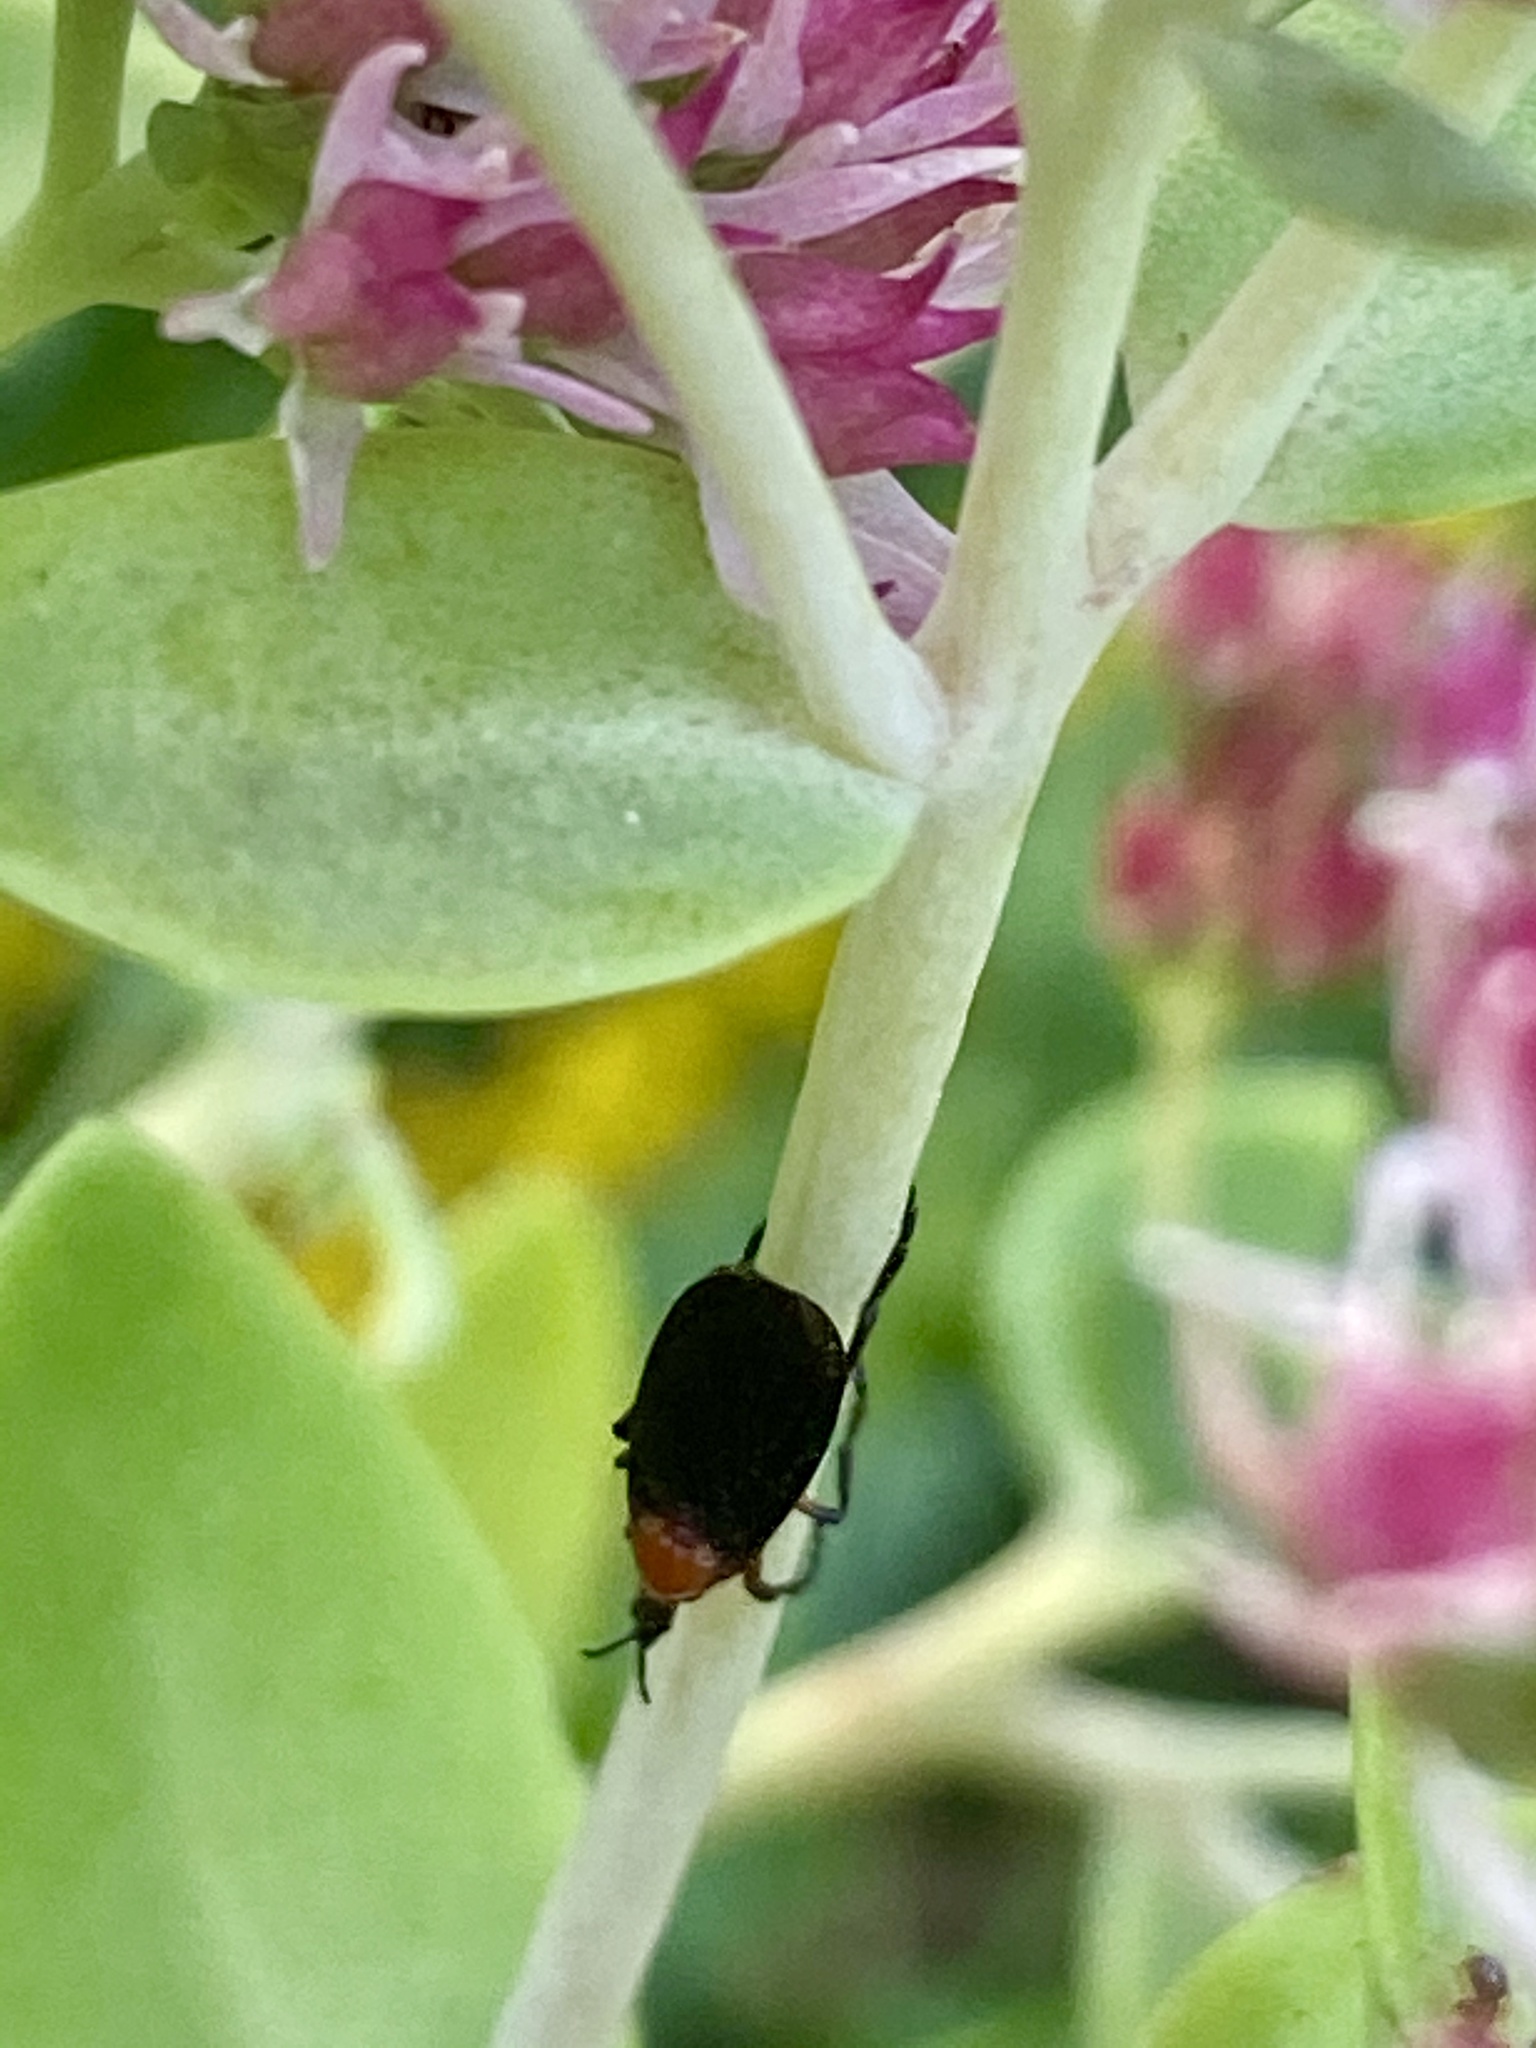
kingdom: Animalia
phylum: Arthropoda
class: Insecta
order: Diptera
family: Bibionidae
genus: Dilophus
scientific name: Dilophus spinipes
